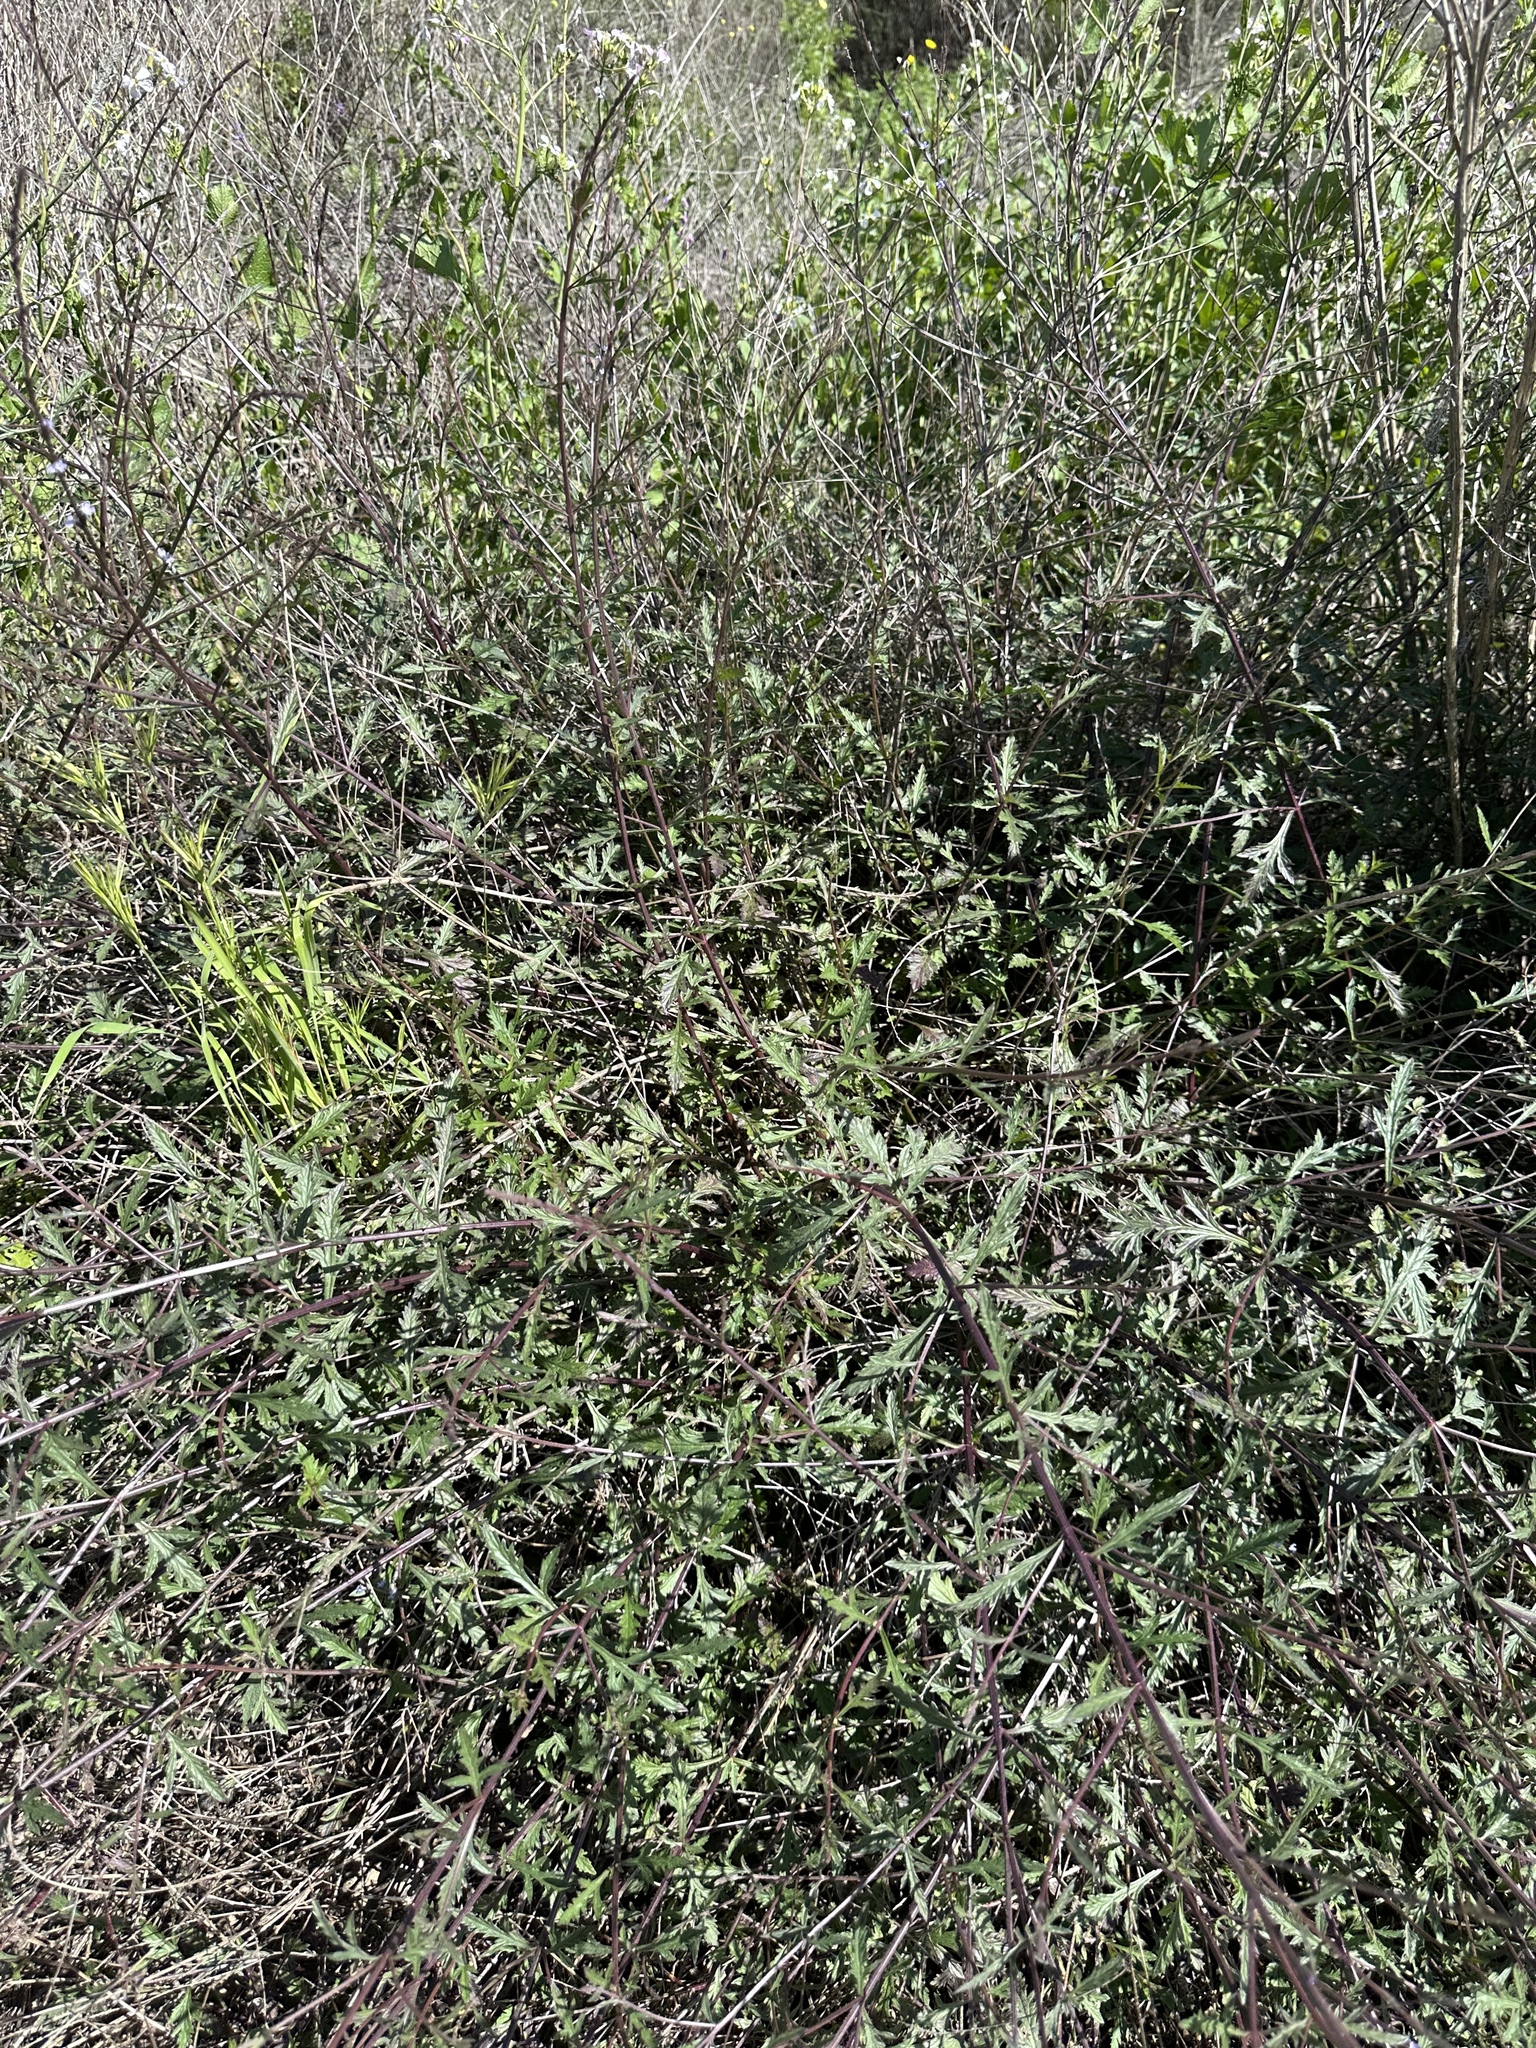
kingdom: Plantae
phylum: Tracheophyta
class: Magnoliopsida
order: Lamiales
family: Verbenaceae
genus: Verbena
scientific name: Verbena menthifolia
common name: Mint-leaf vervain
